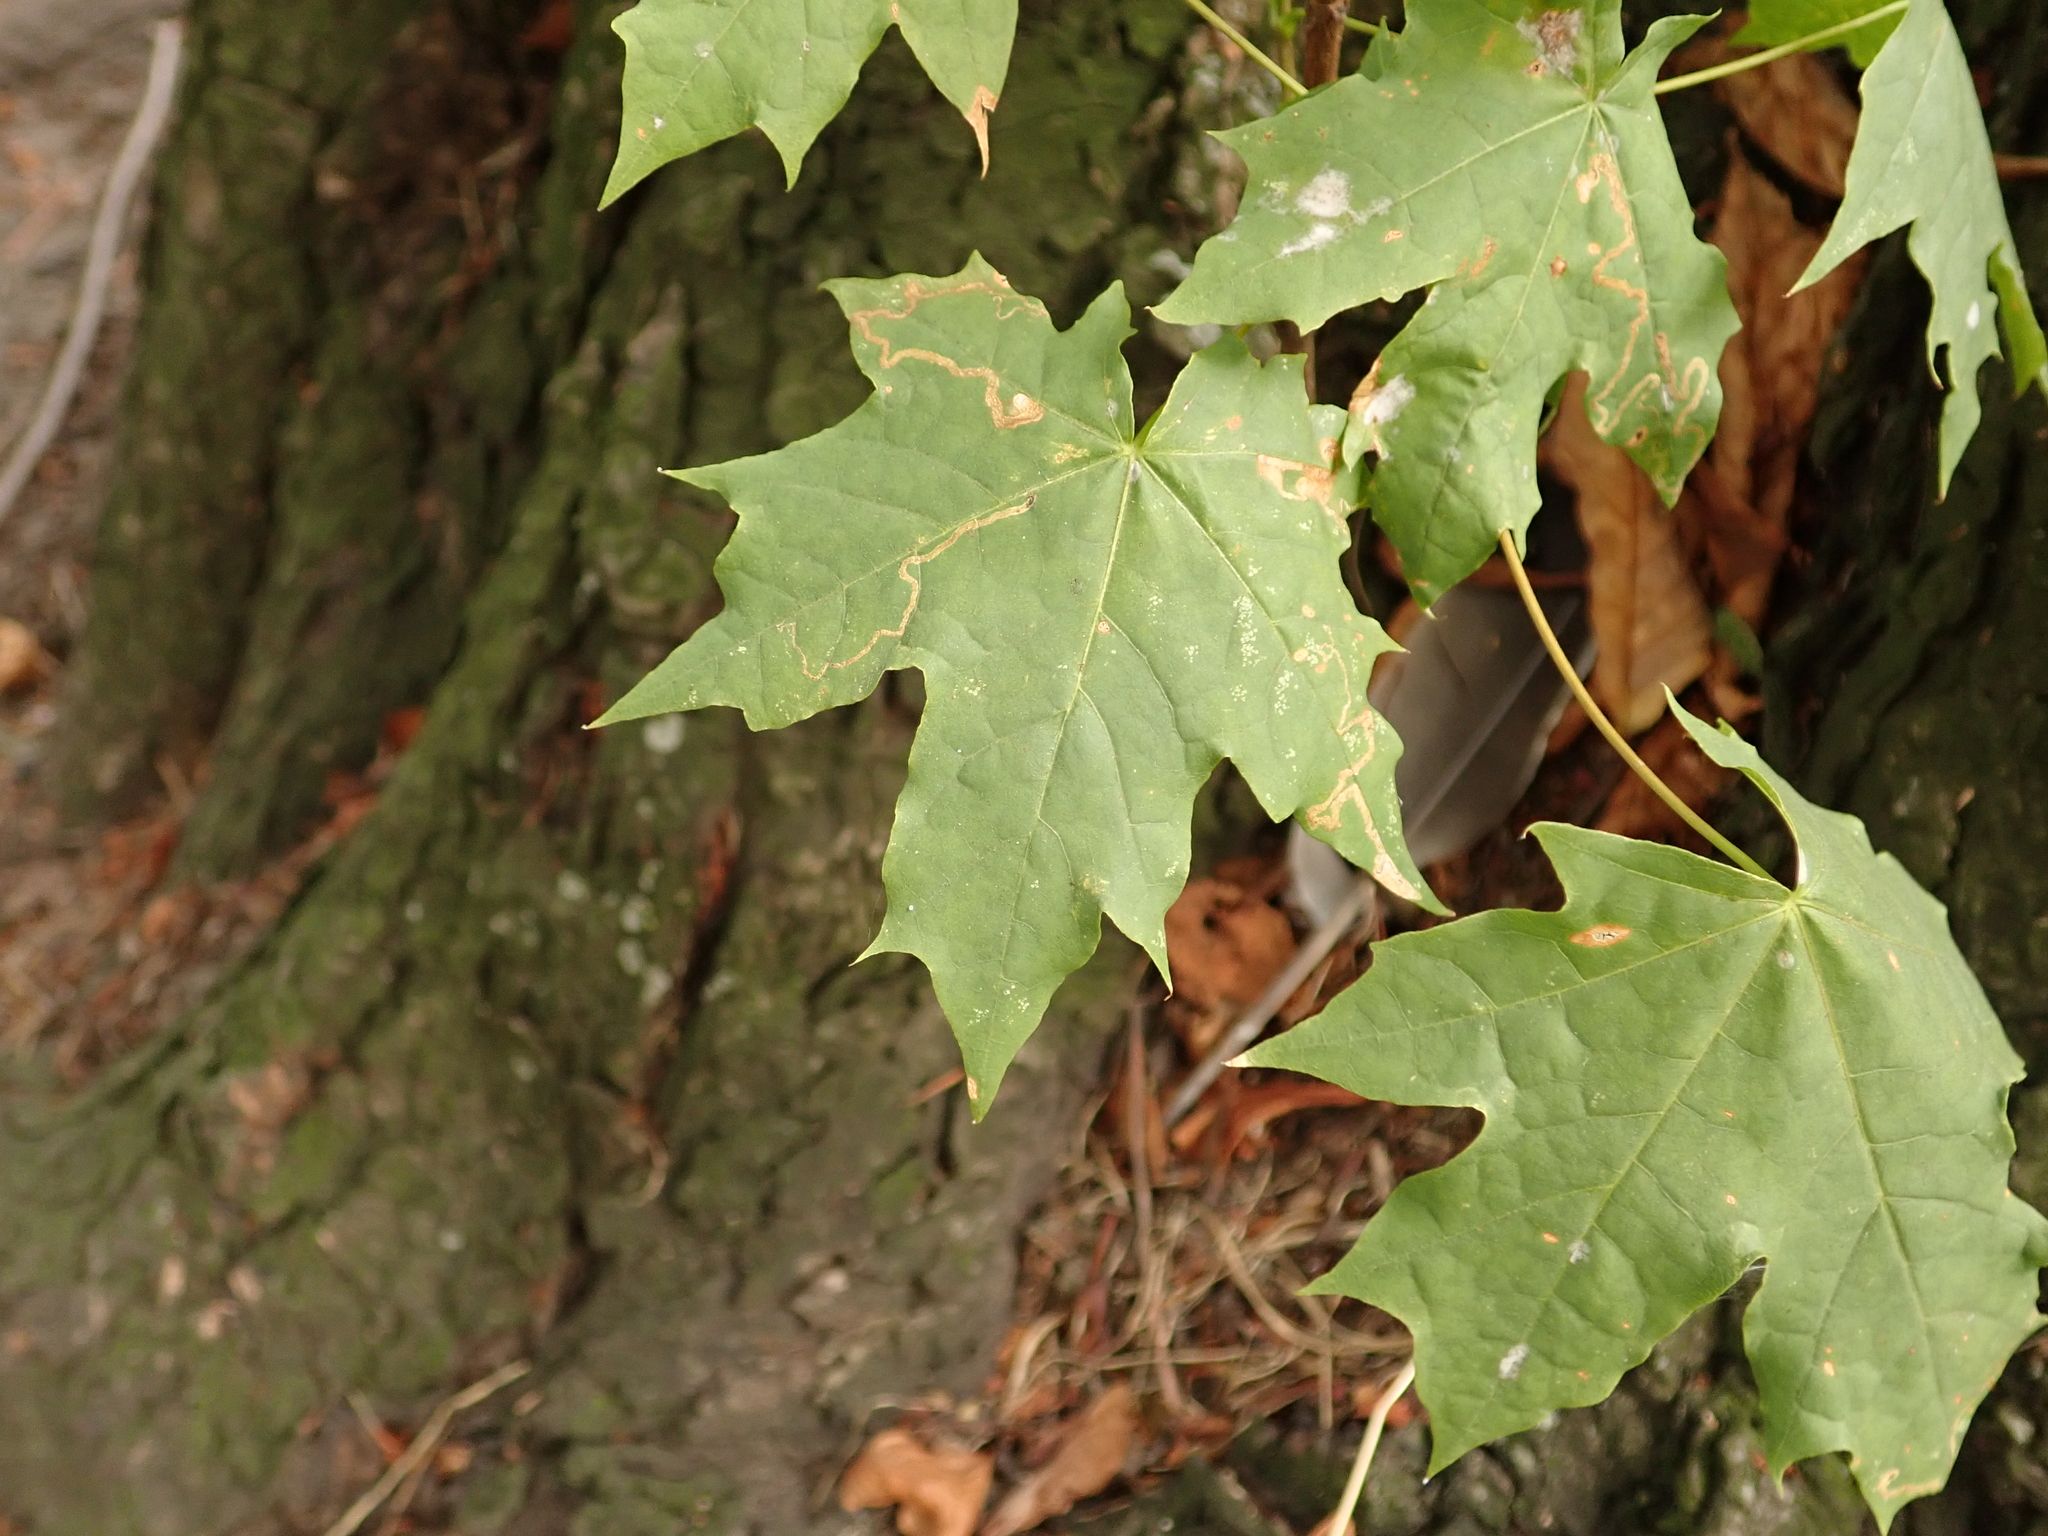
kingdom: Plantae
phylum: Tracheophyta
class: Magnoliopsida
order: Sapindales
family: Sapindaceae
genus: Acer
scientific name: Acer platanoides
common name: Norway maple
